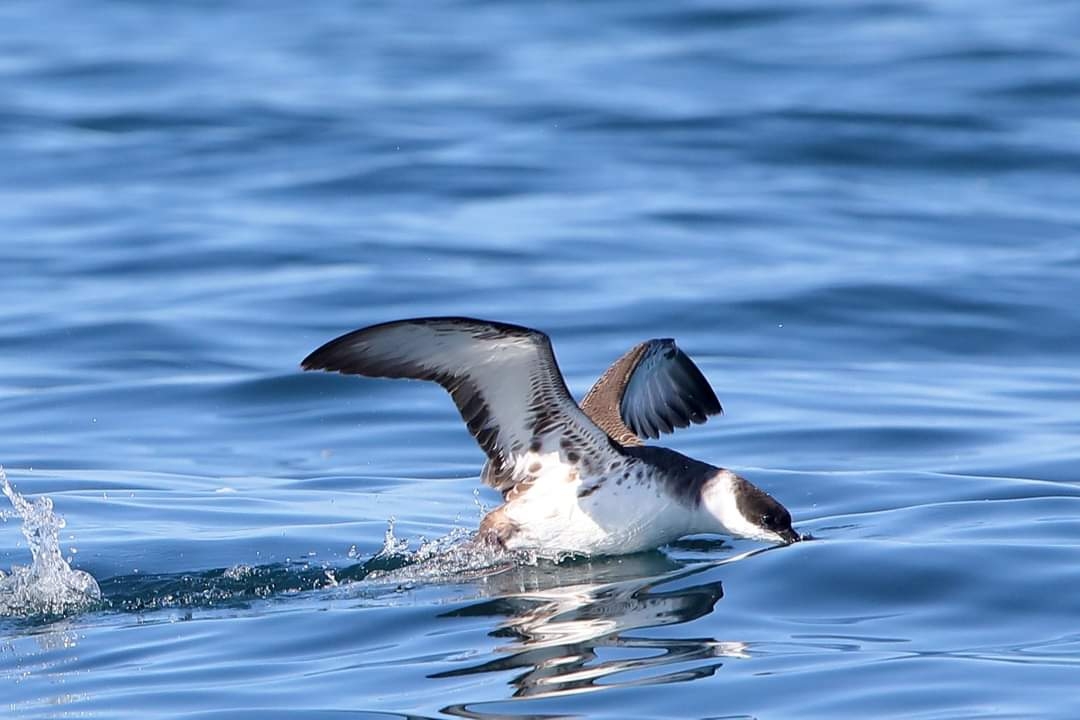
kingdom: Animalia
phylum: Chordata
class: Aves
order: Procellariiformes
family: Procellariidae
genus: Puffinus
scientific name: Puffinus gravis
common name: Great shearwater
